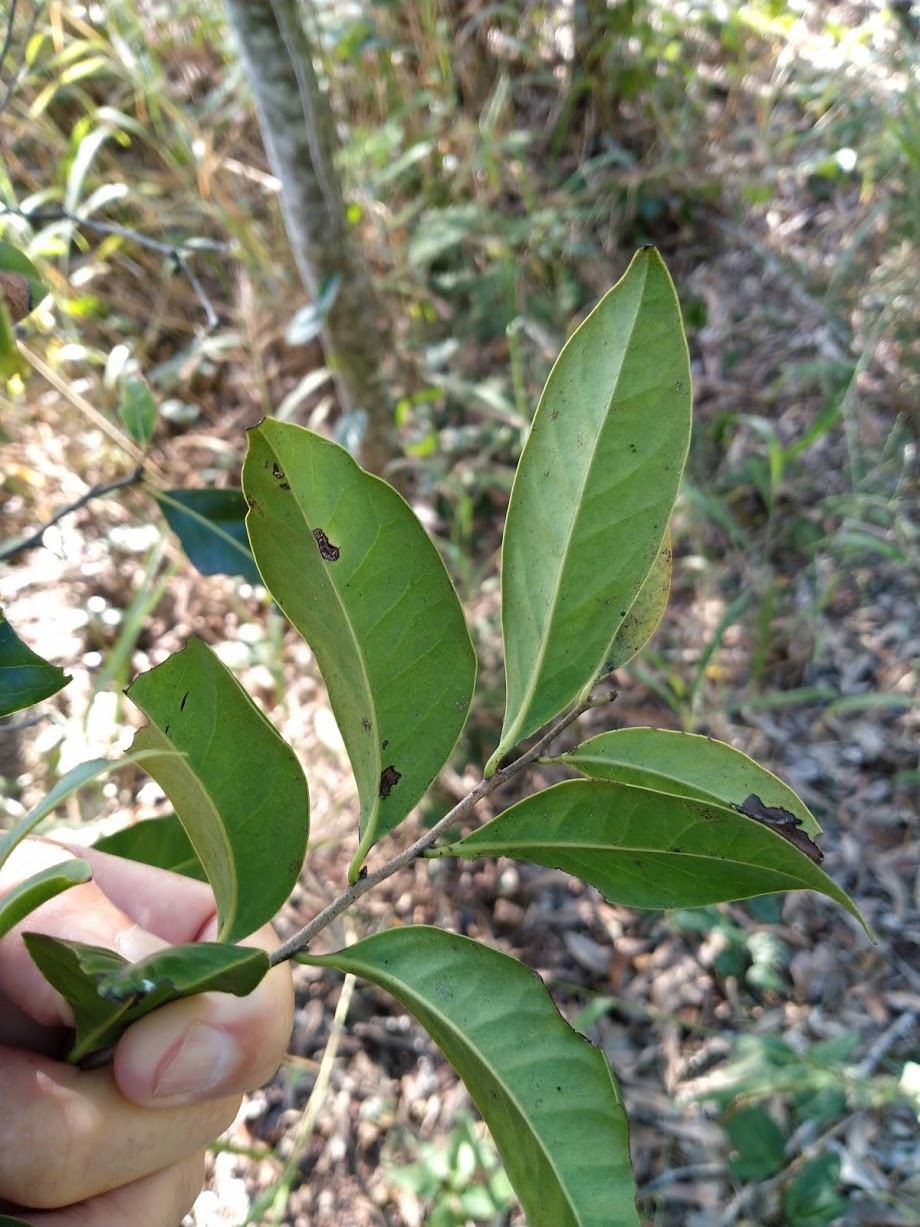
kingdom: Plantae
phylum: Tracheophyta
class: Magnoliopsida
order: Ericales
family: Ebenaceae
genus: Diospyros
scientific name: Diospyros fasciculosa
